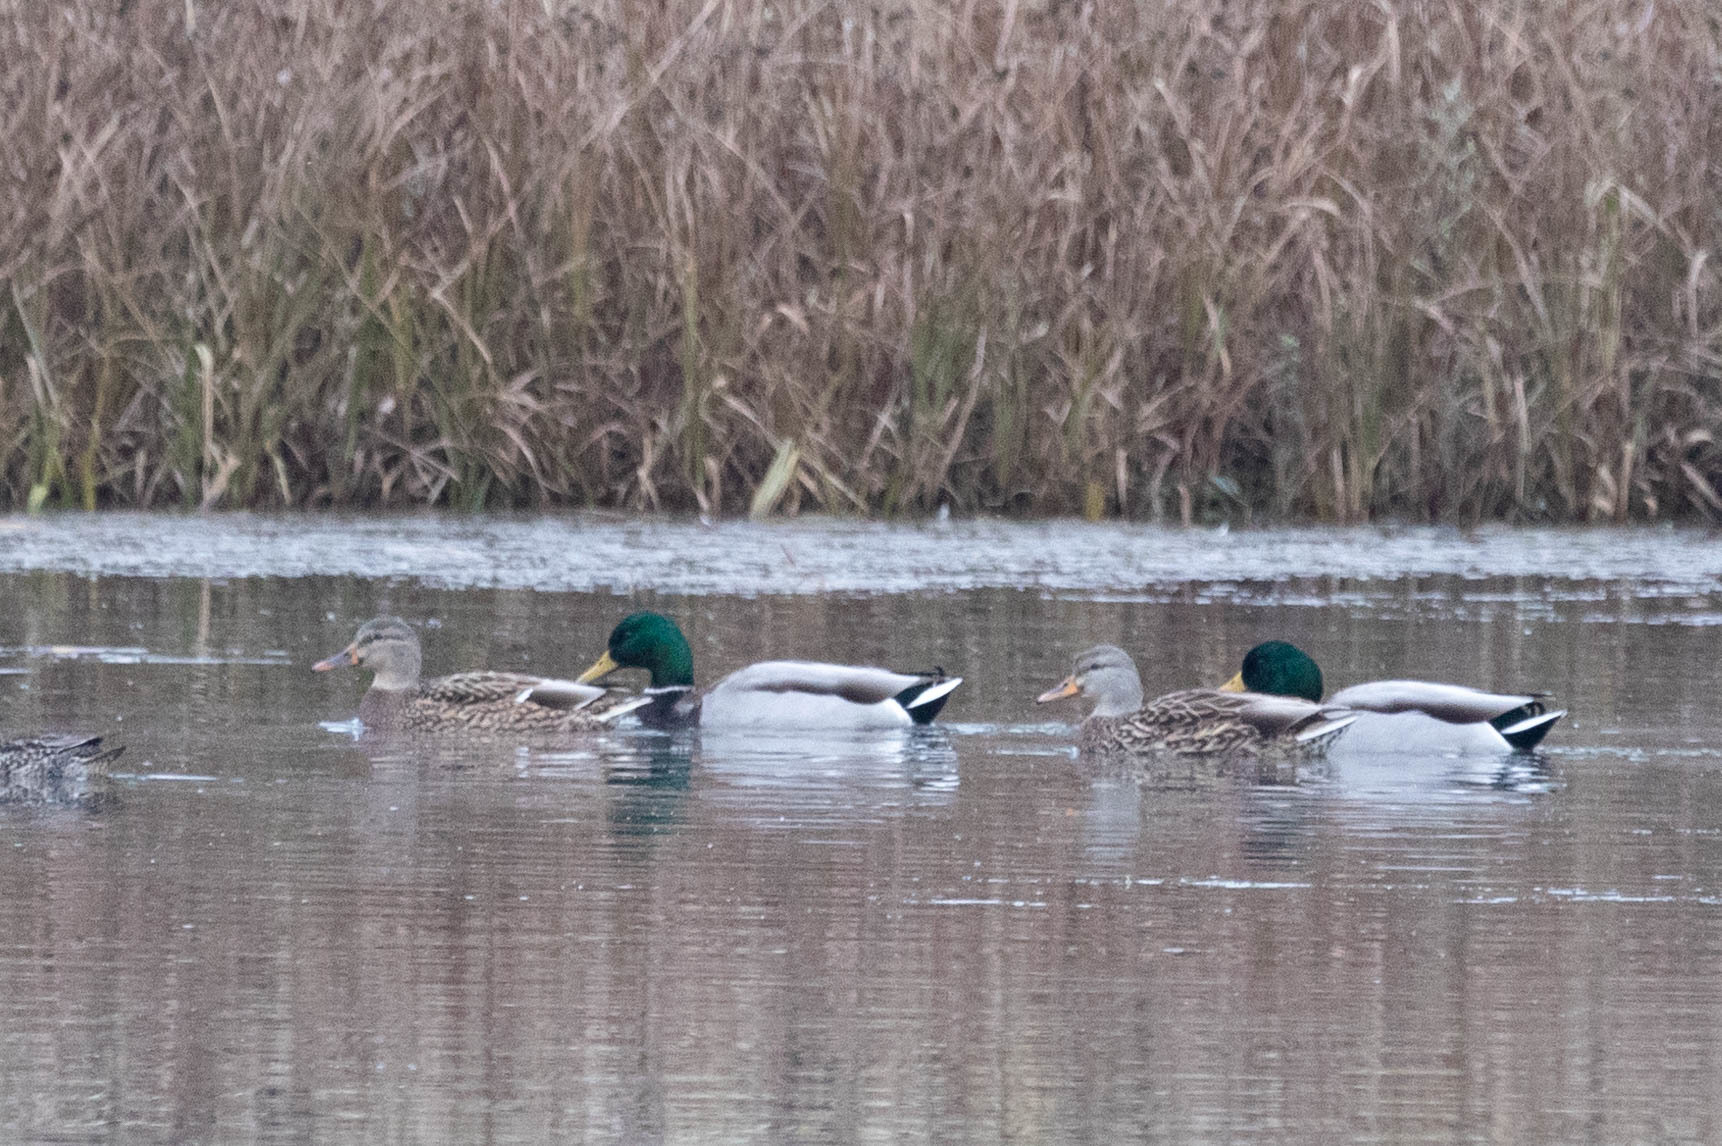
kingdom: Animalia
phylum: Chordata
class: Aves
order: Anseriformes
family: Anatidae
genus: Anas
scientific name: Anas platyrhynchos
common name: Mallard
